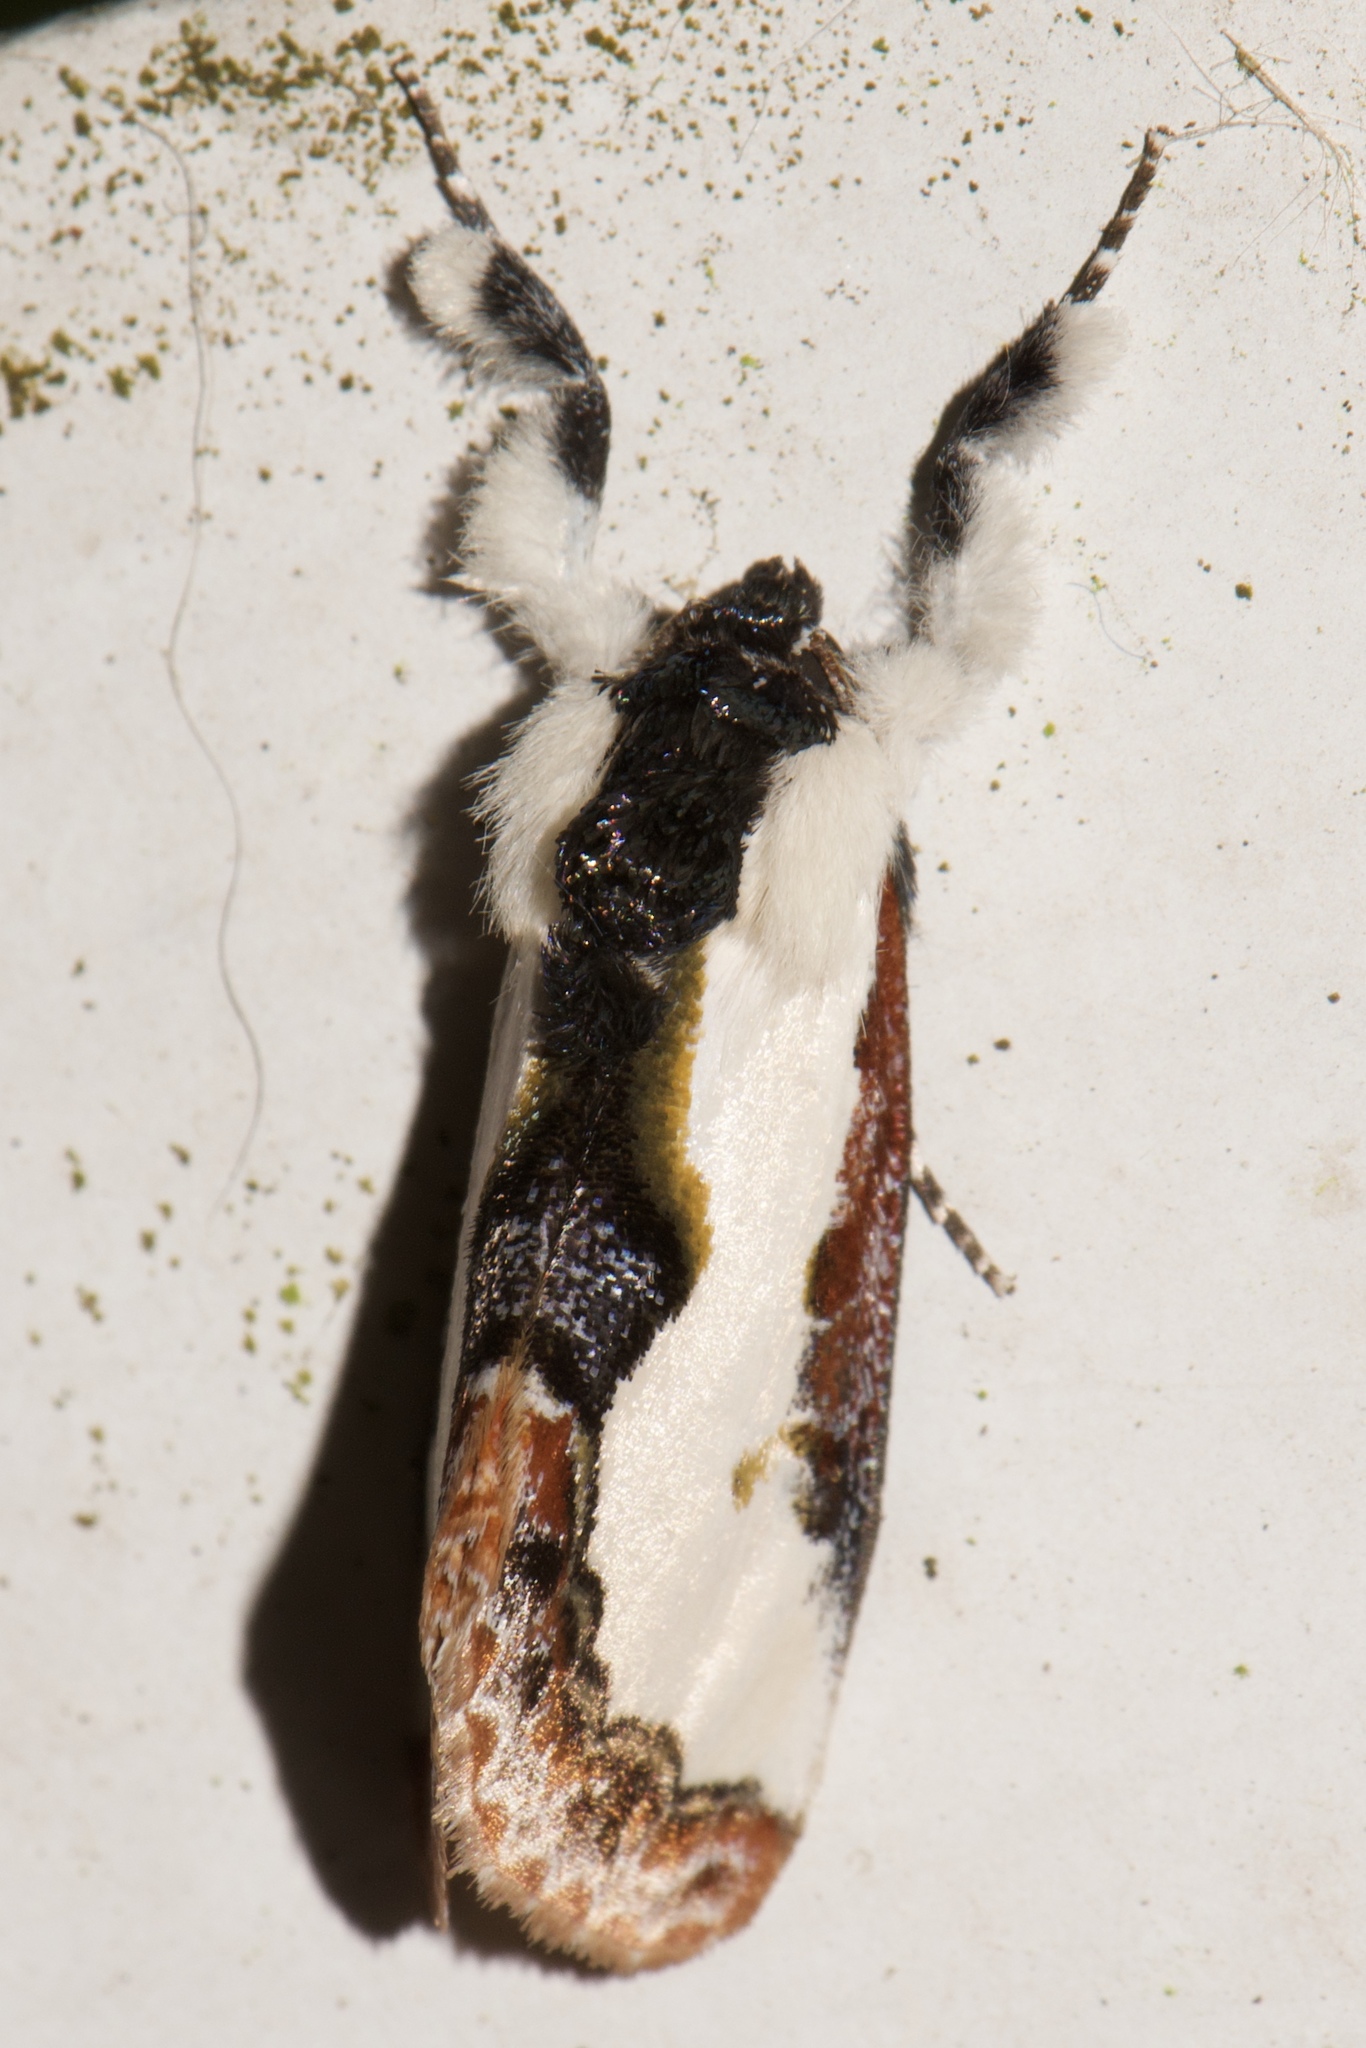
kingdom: Animalia
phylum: Arthropoda
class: Insecta
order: Lepidoptera
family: Noctuidae
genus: Eudryas
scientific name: Eudryas unio
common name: Pearly wood-nymph
